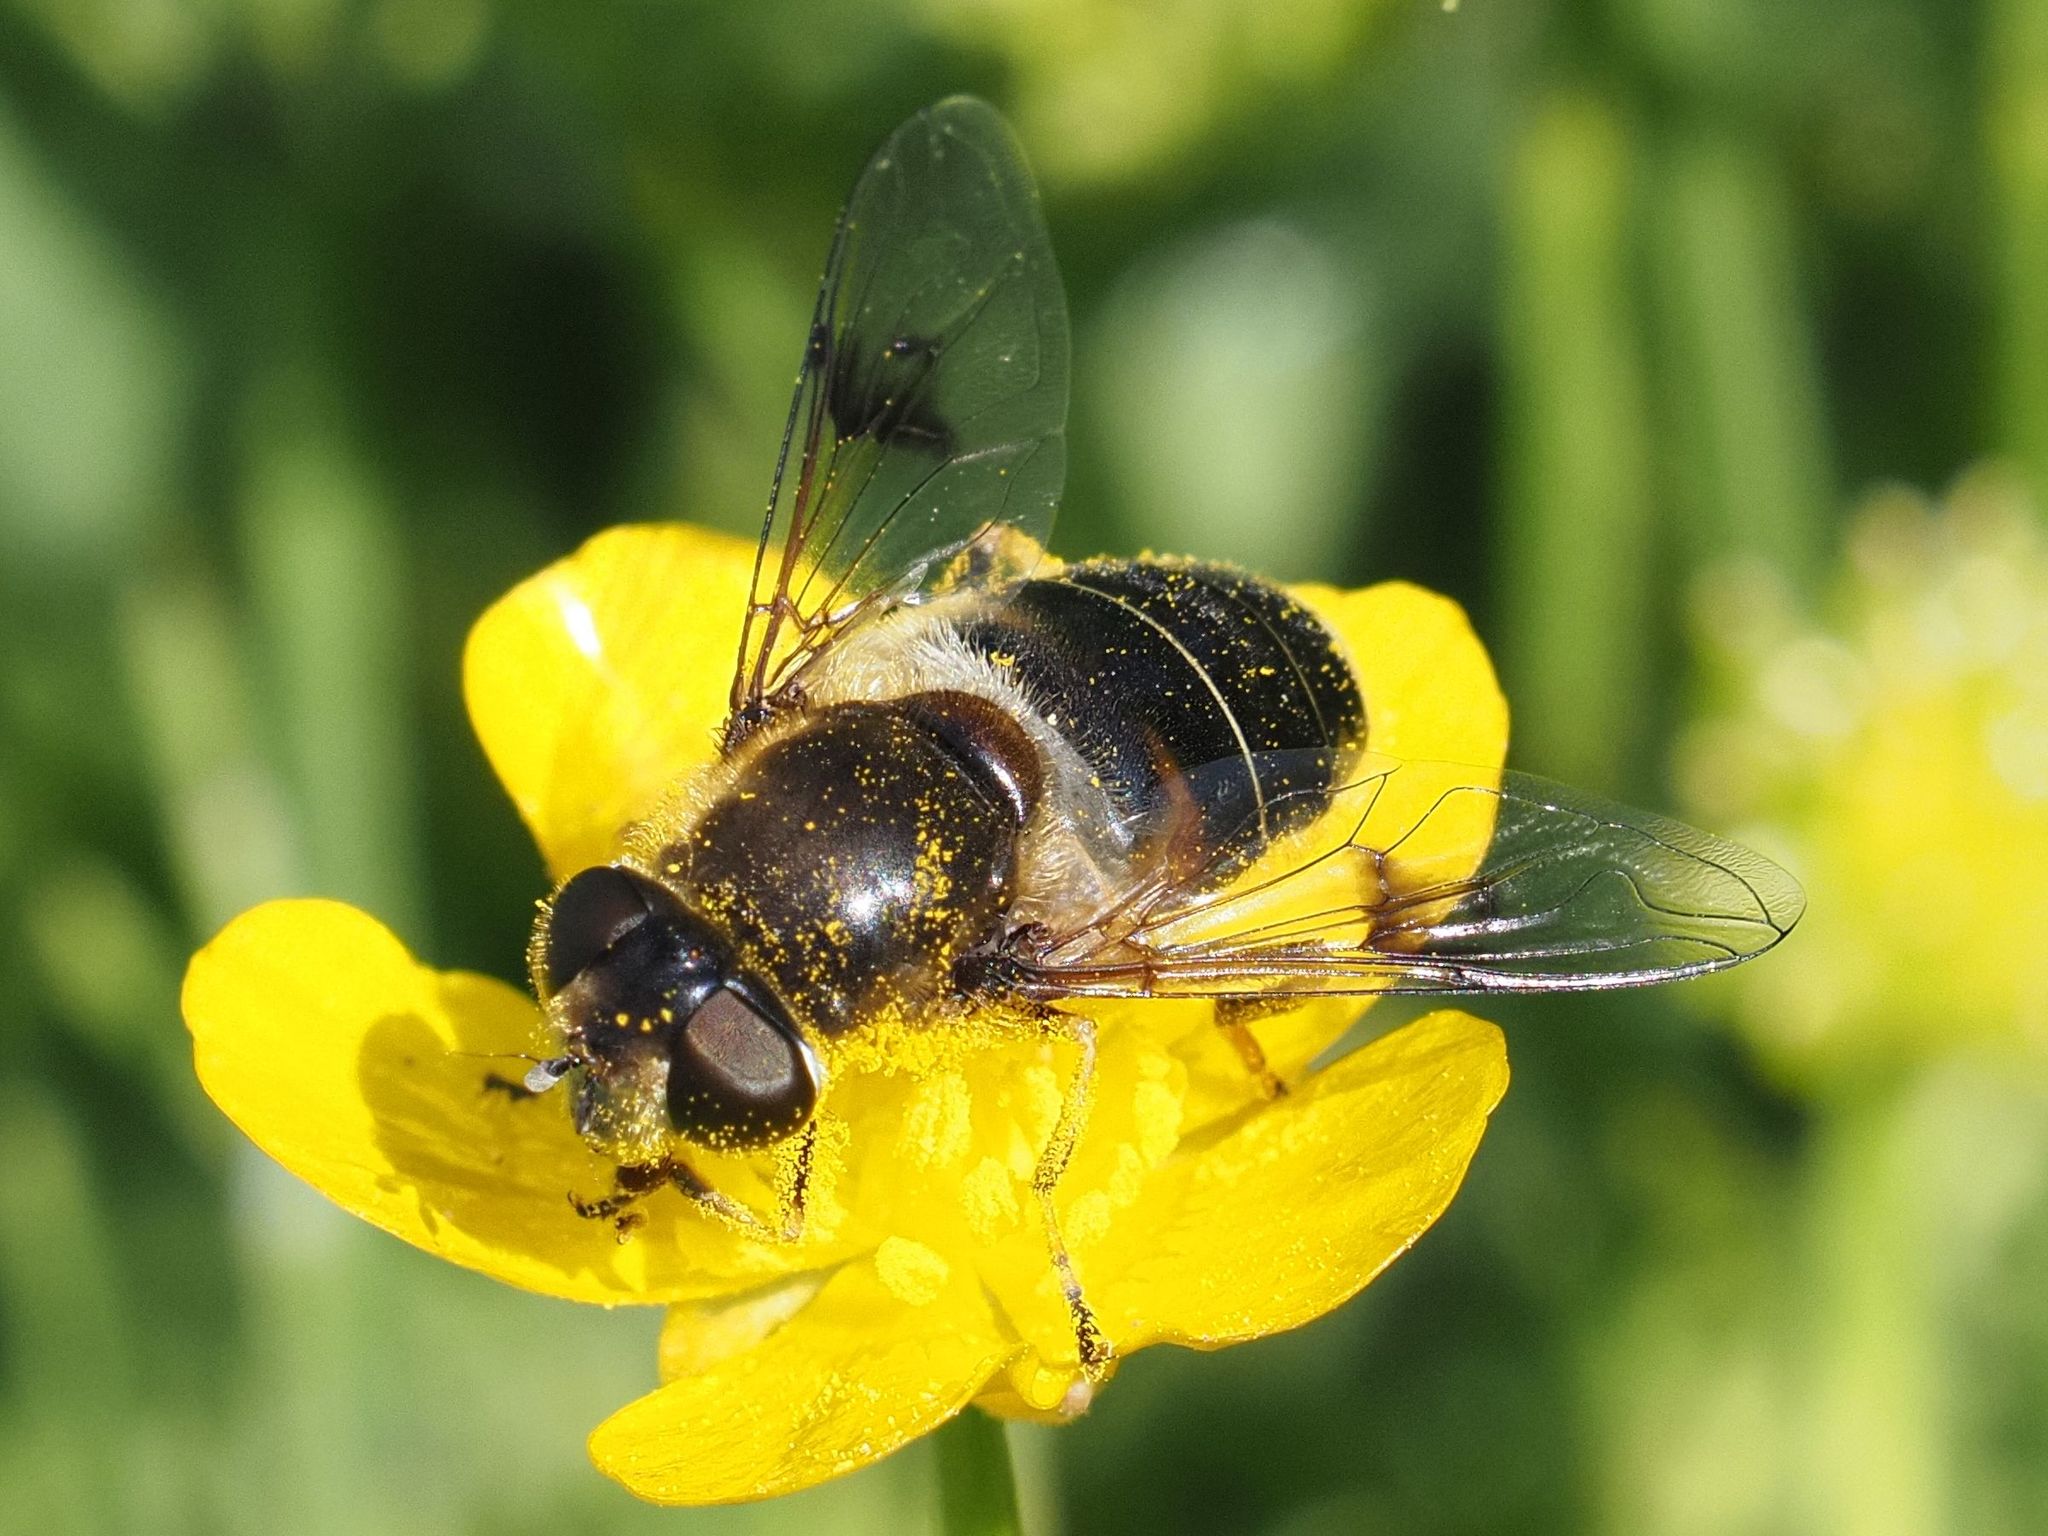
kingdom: Animalia
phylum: Arthropoda
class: Insecta
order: Diptera
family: Syrphidae
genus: Eristalis
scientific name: Eristalis rupium
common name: Hover fly
